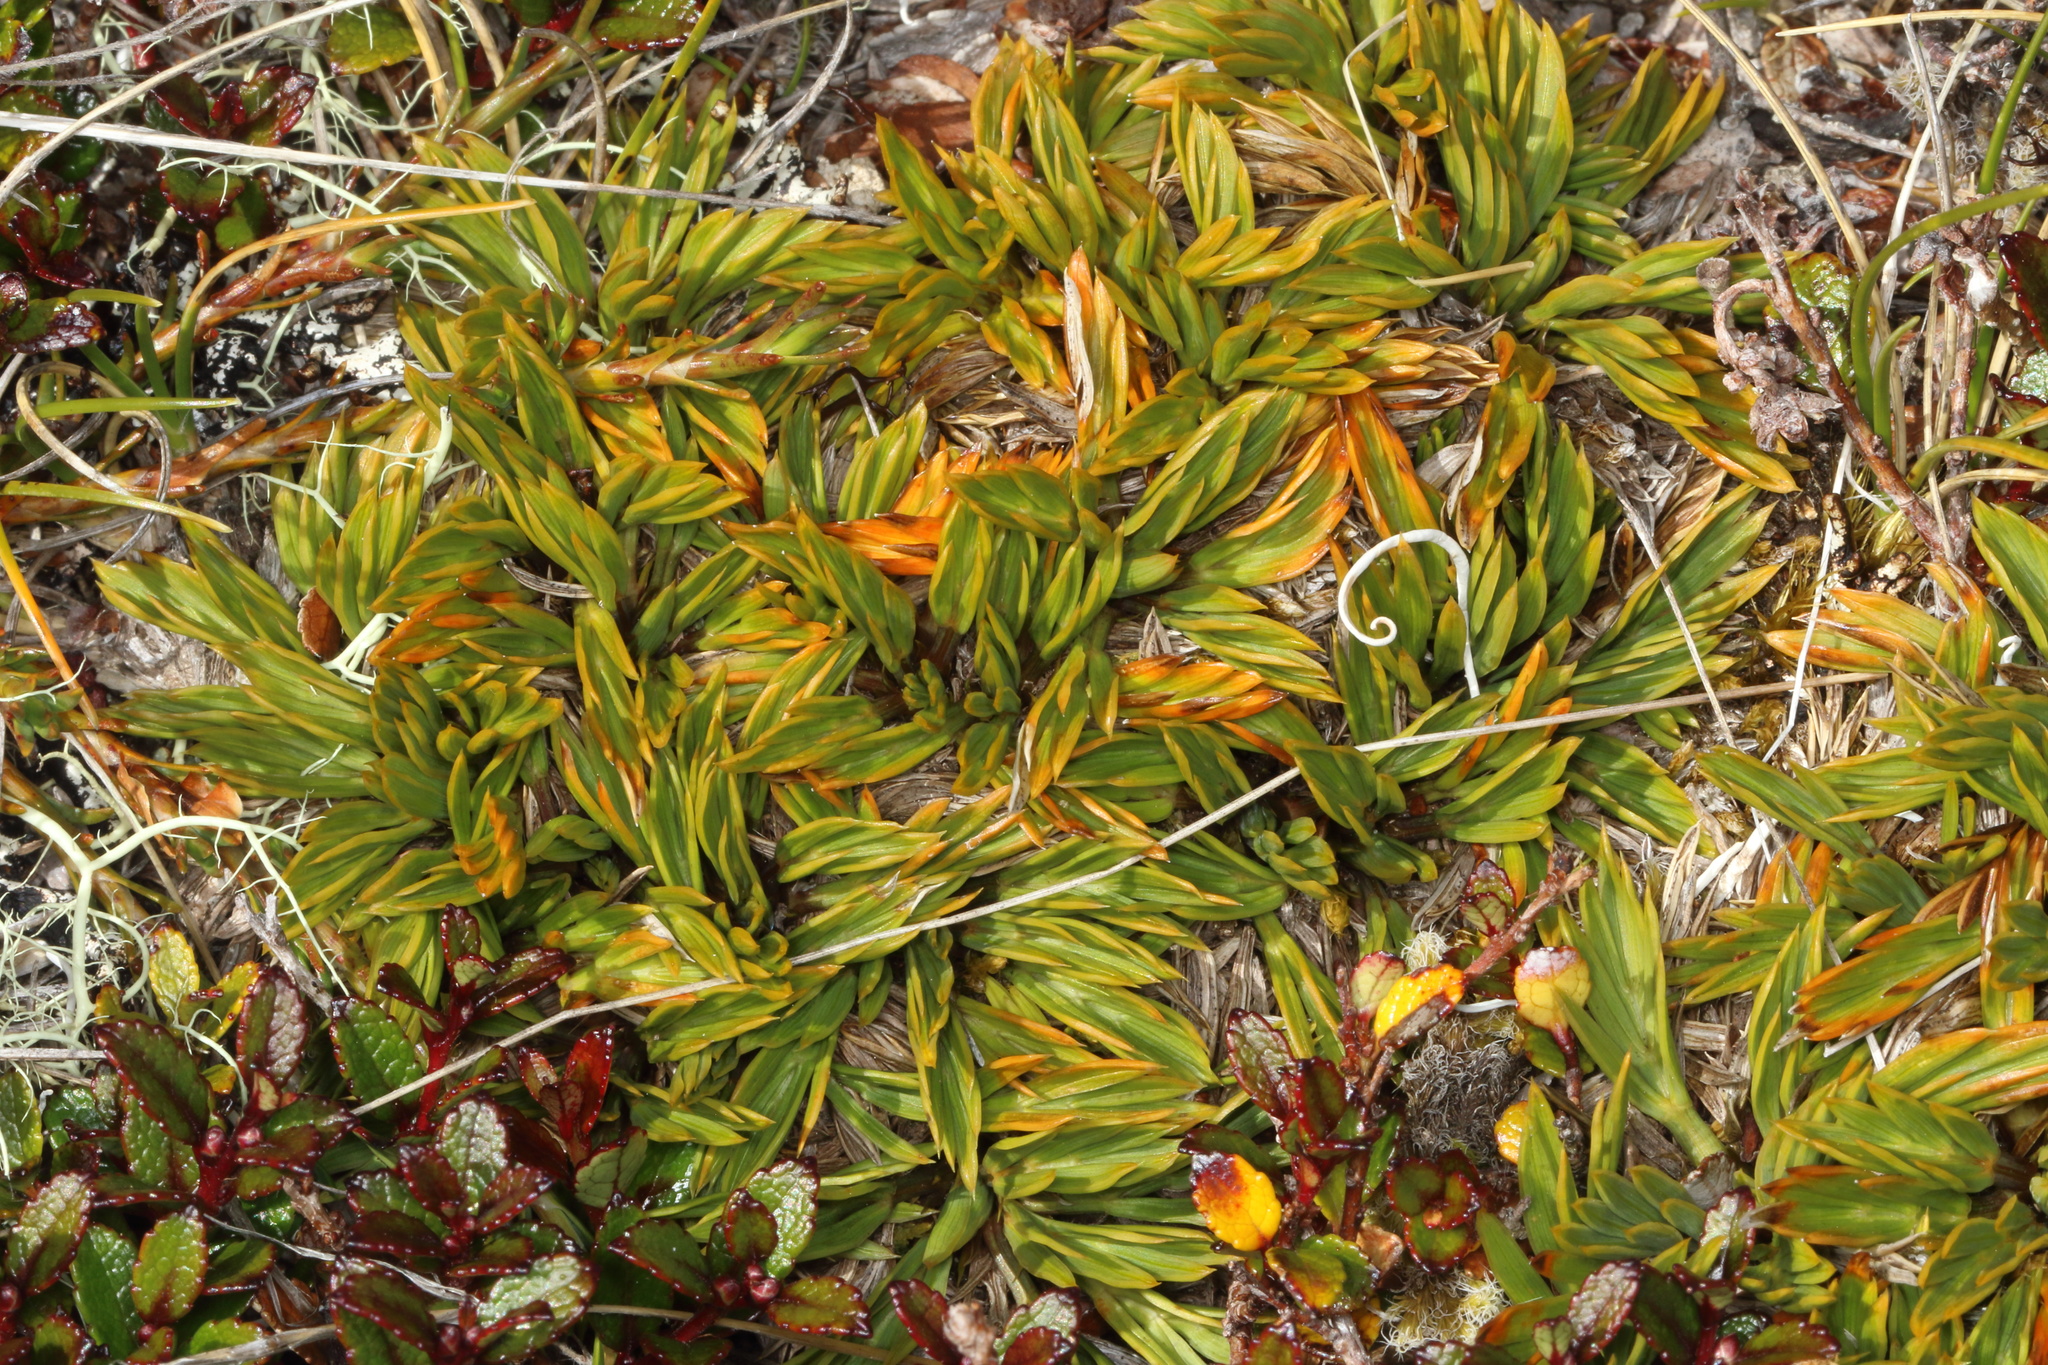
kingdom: Plantae
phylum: Tracheophyta
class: Magnoliopsida
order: Apiales
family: Apiaceae
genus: Aciphylla
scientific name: Aciphylla monroi
